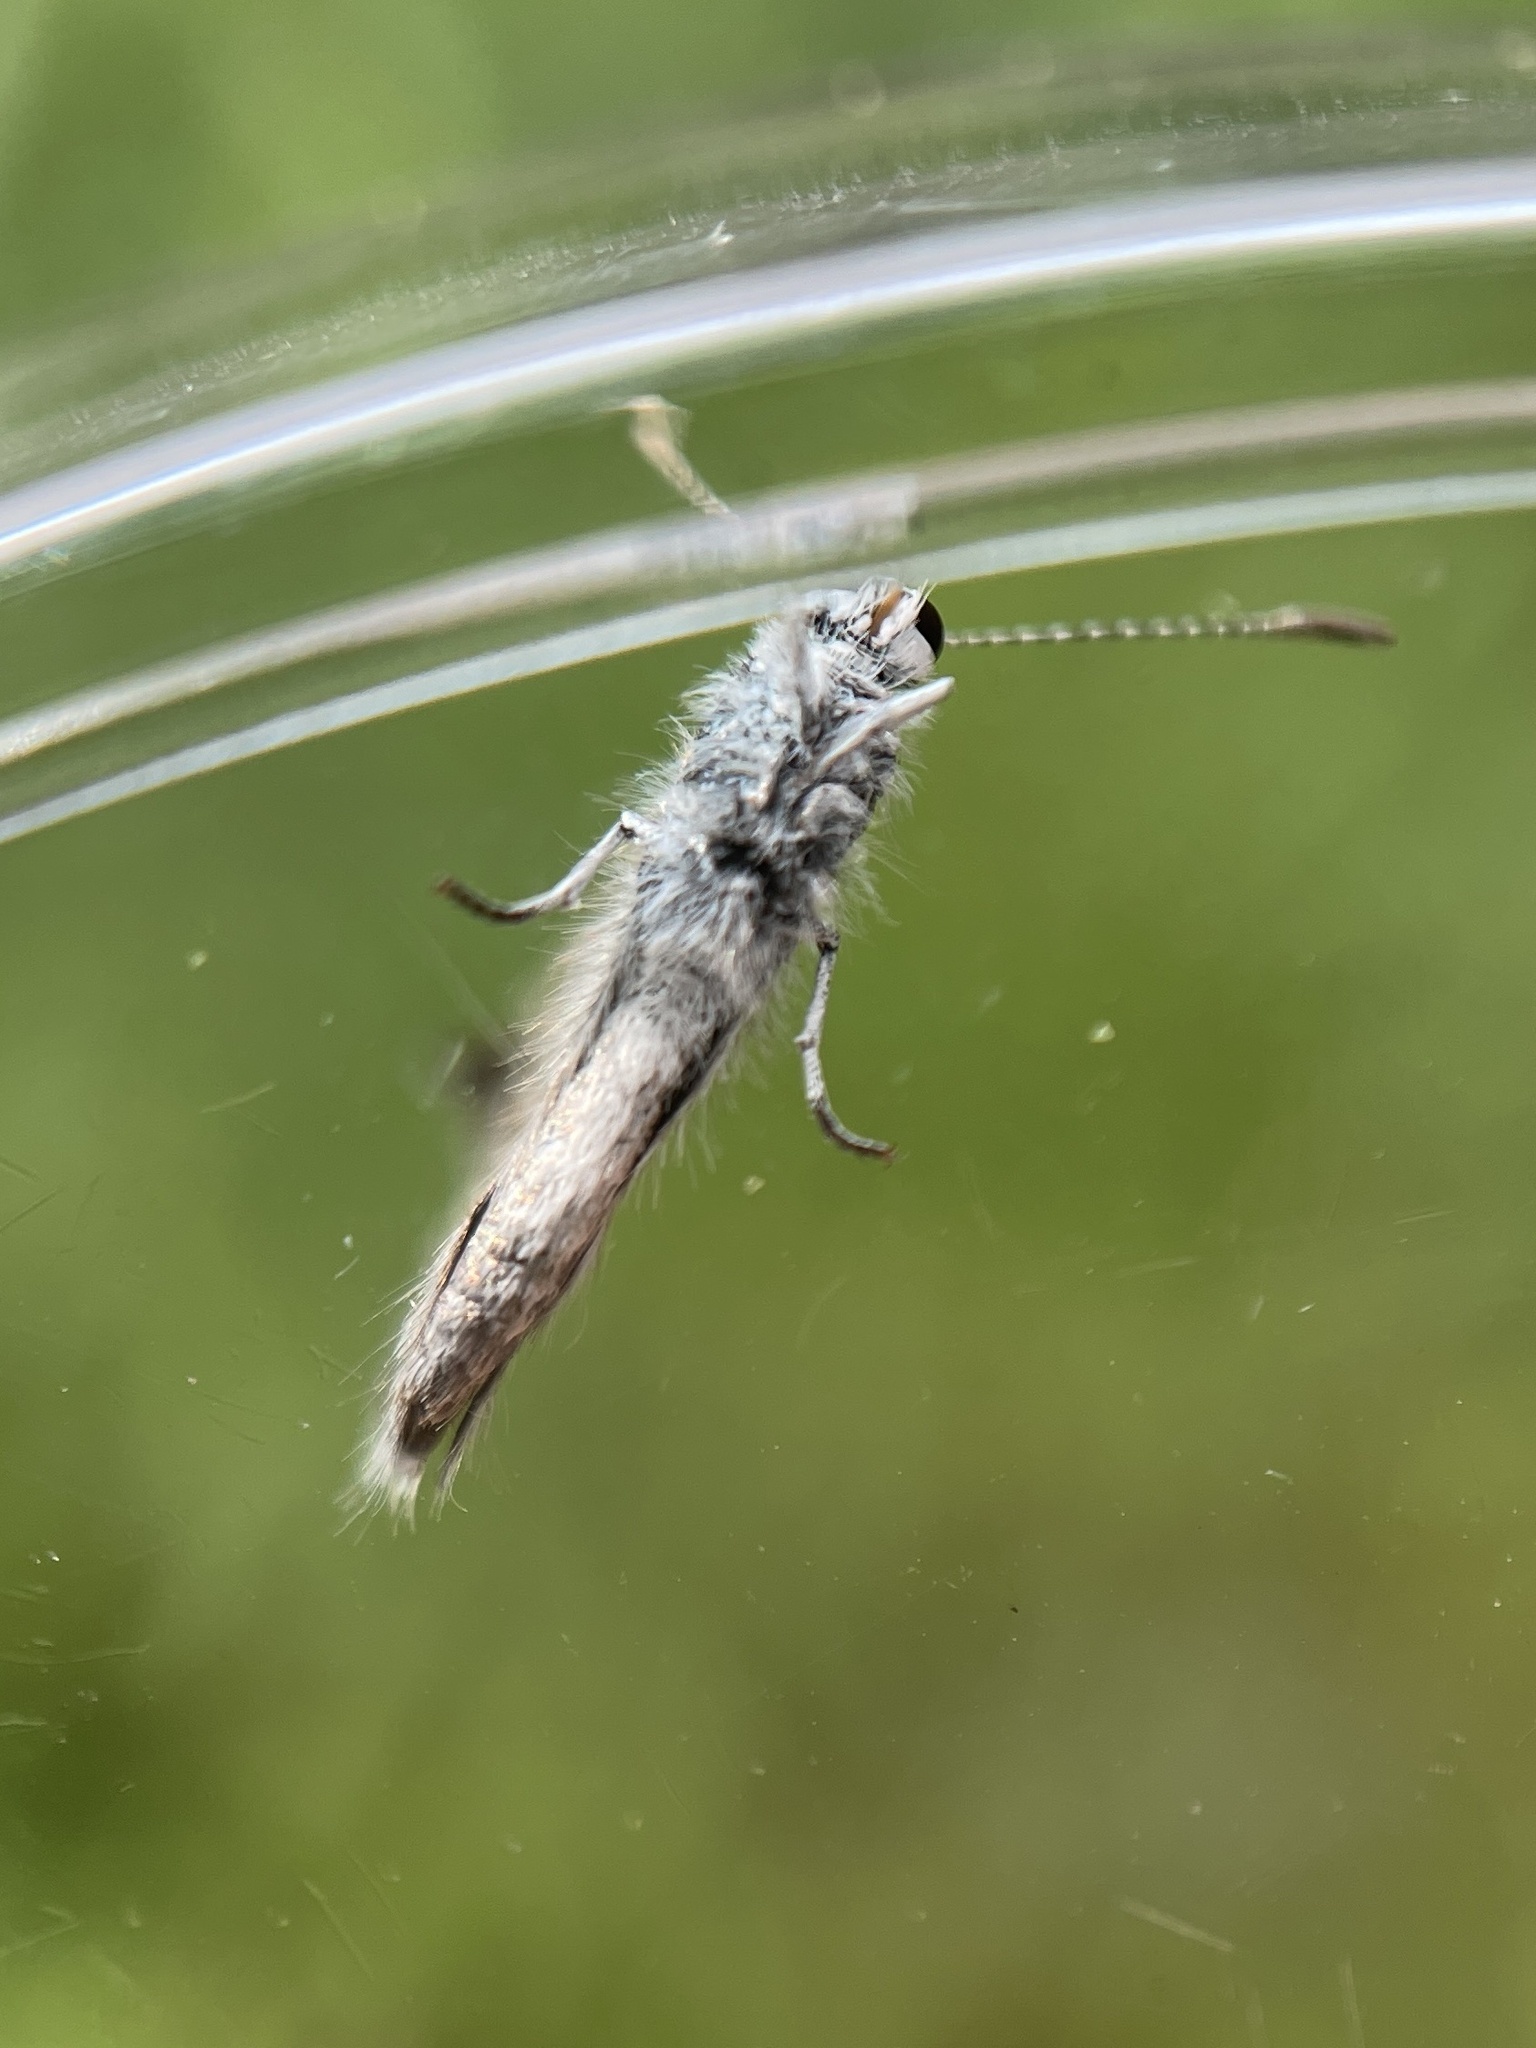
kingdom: Animalia
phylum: Arthropoda
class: Insecta
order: Lepidoptera
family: Lycaenidae
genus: Echinargus
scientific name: Echinargus isola
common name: Reakirt's blue
